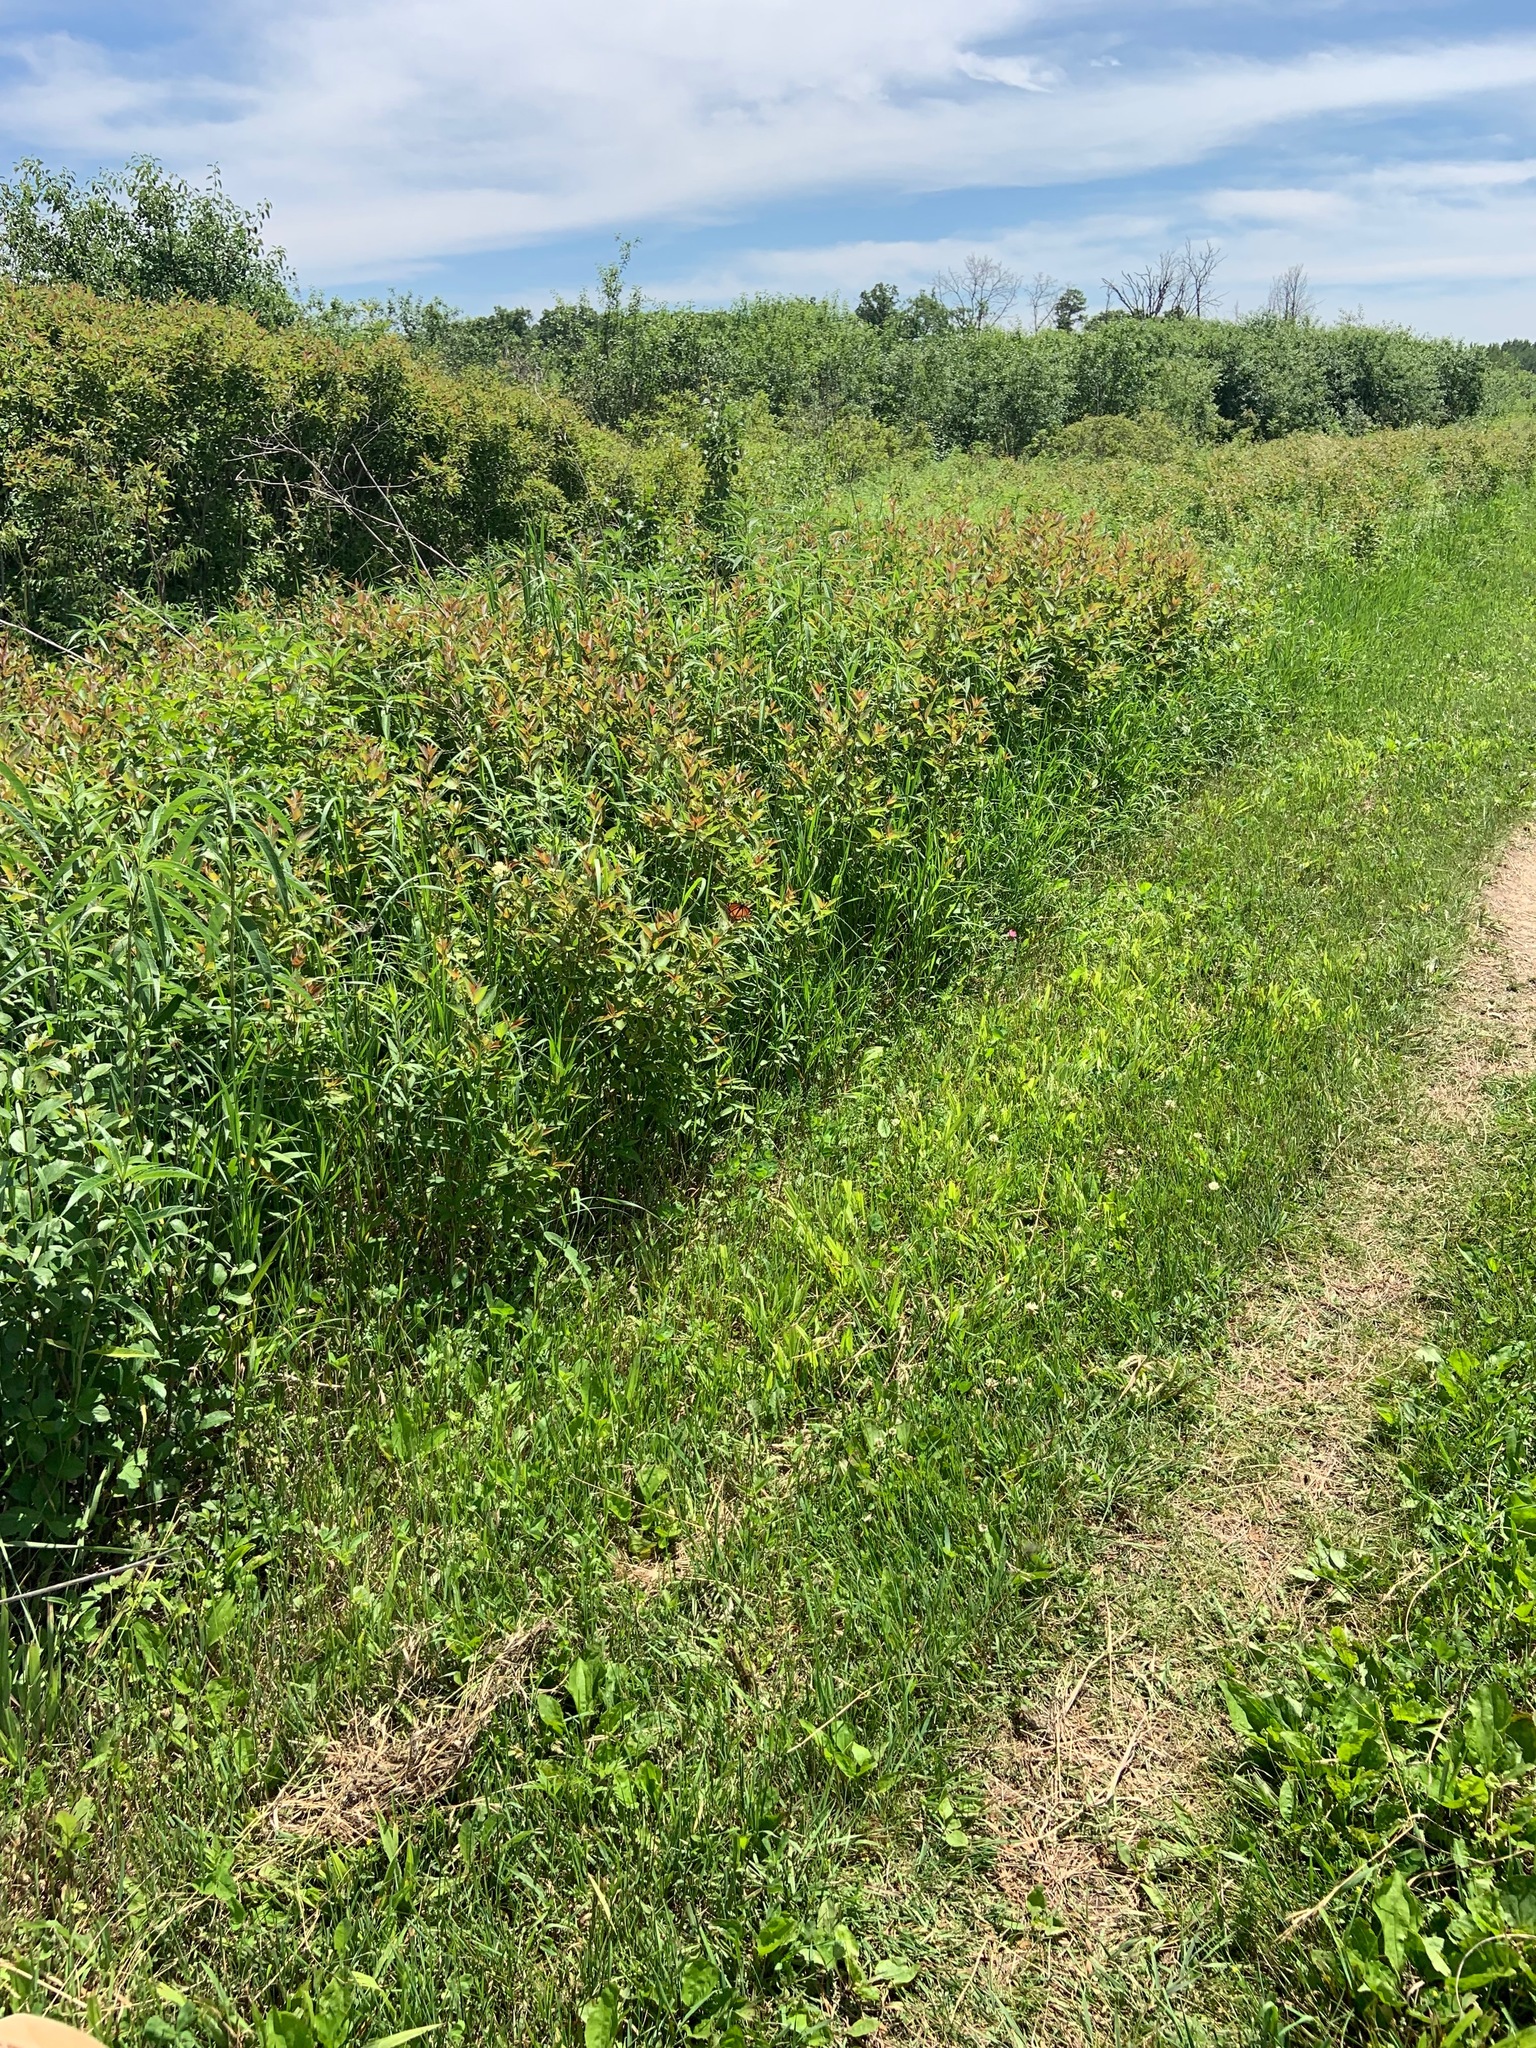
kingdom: Animalia
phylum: Arthropoda
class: Insecta
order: Lepidoptera
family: Nymphalidae
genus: Limenitis
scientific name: Limenitis archippus
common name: Viceroy
